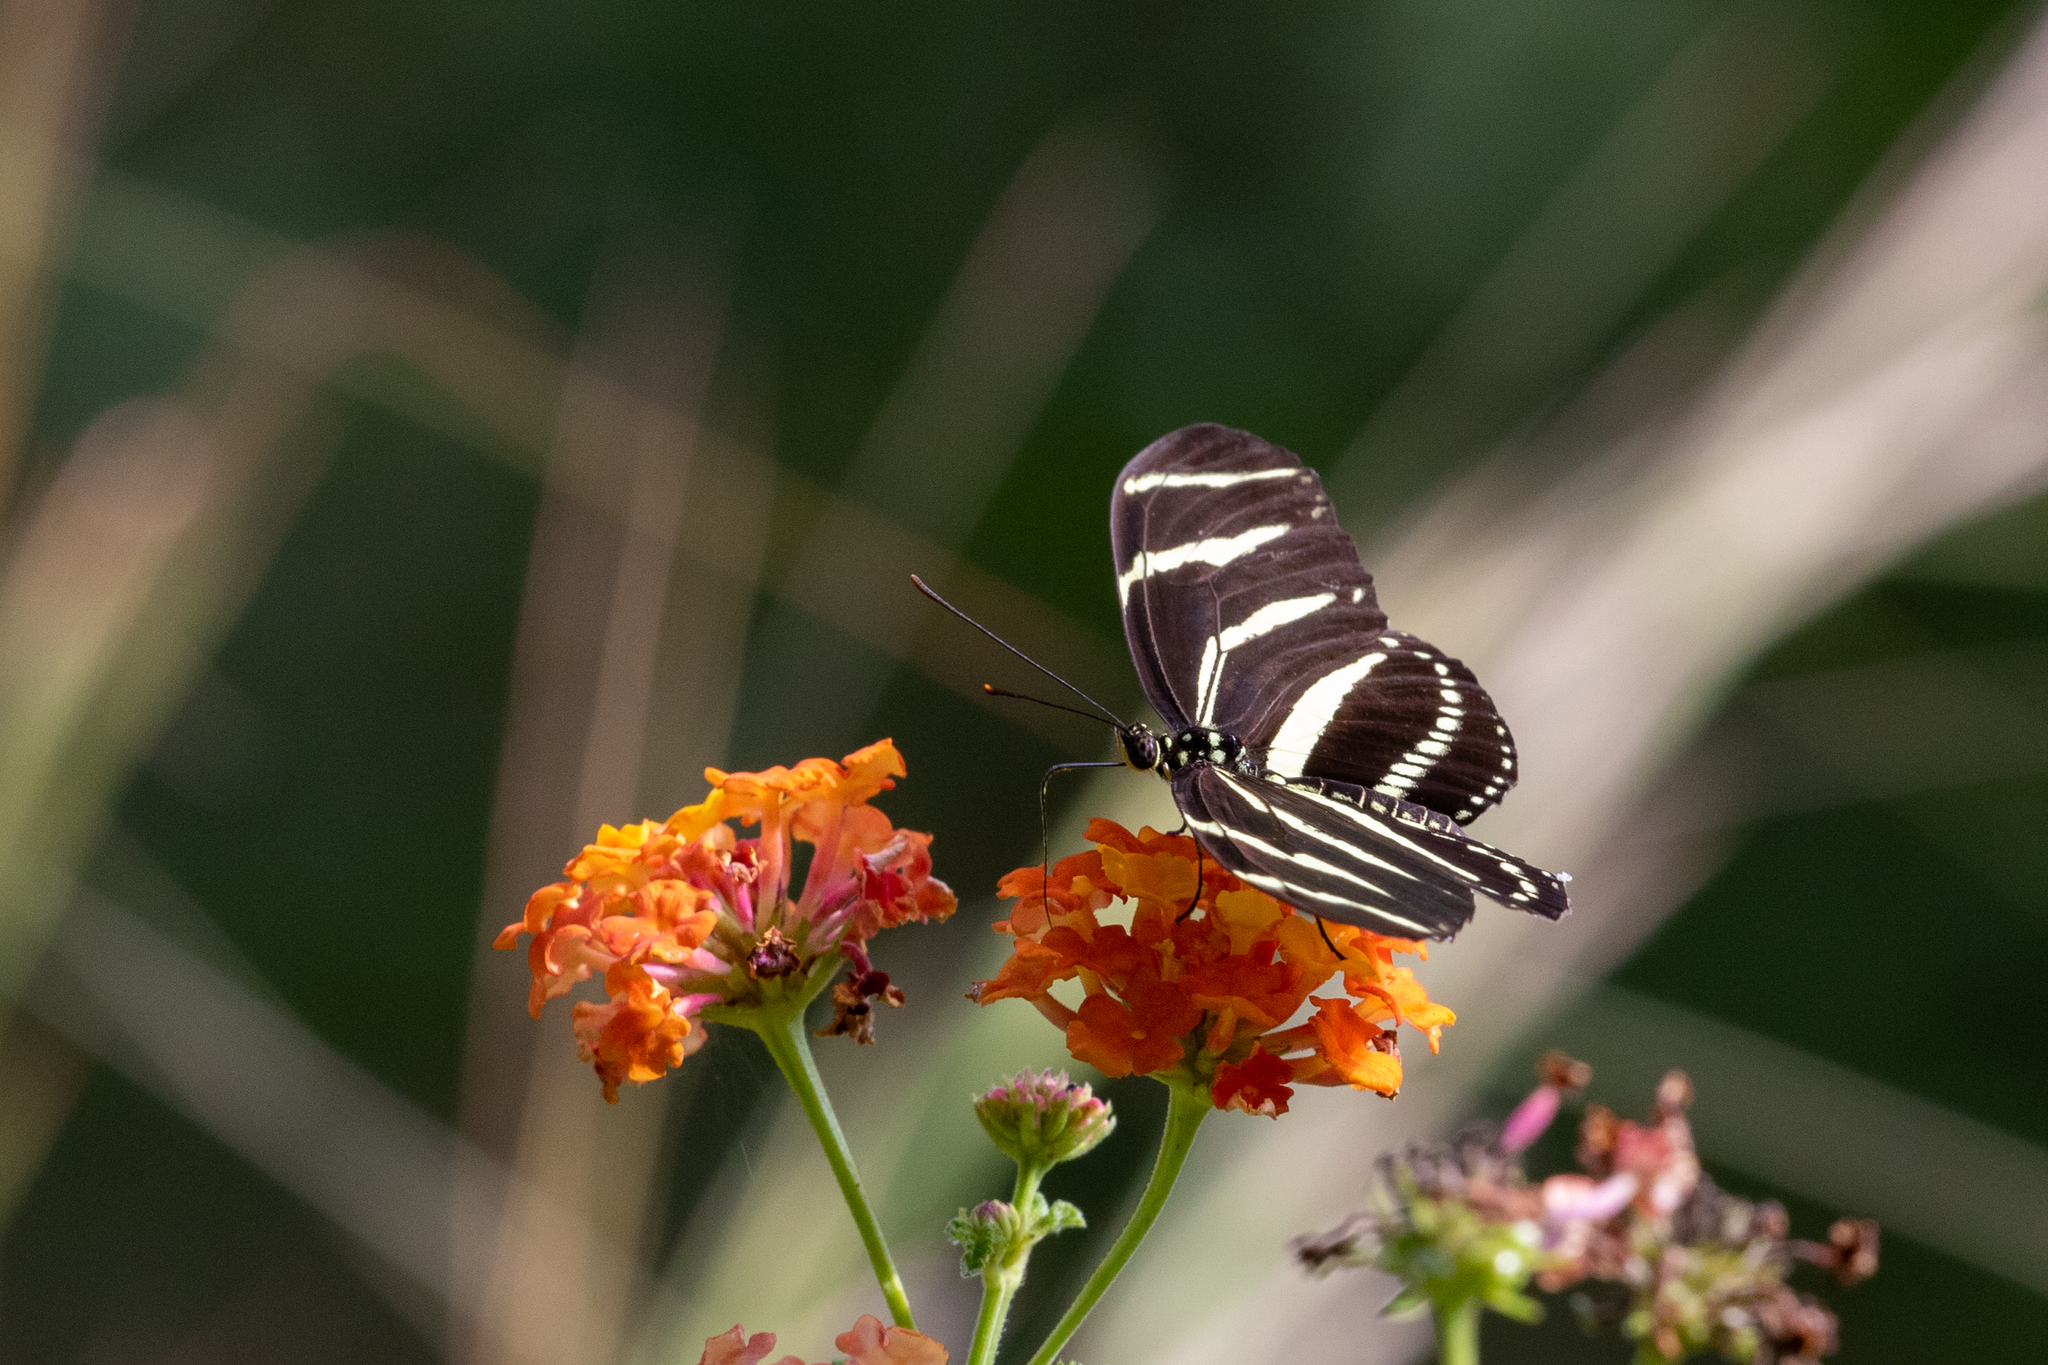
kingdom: Animalia
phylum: Arthropoda
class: Insecta
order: Lepidoptera
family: Nymphalidae
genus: Heliconius
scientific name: Heliconius charithonia
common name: Zebra long wing
